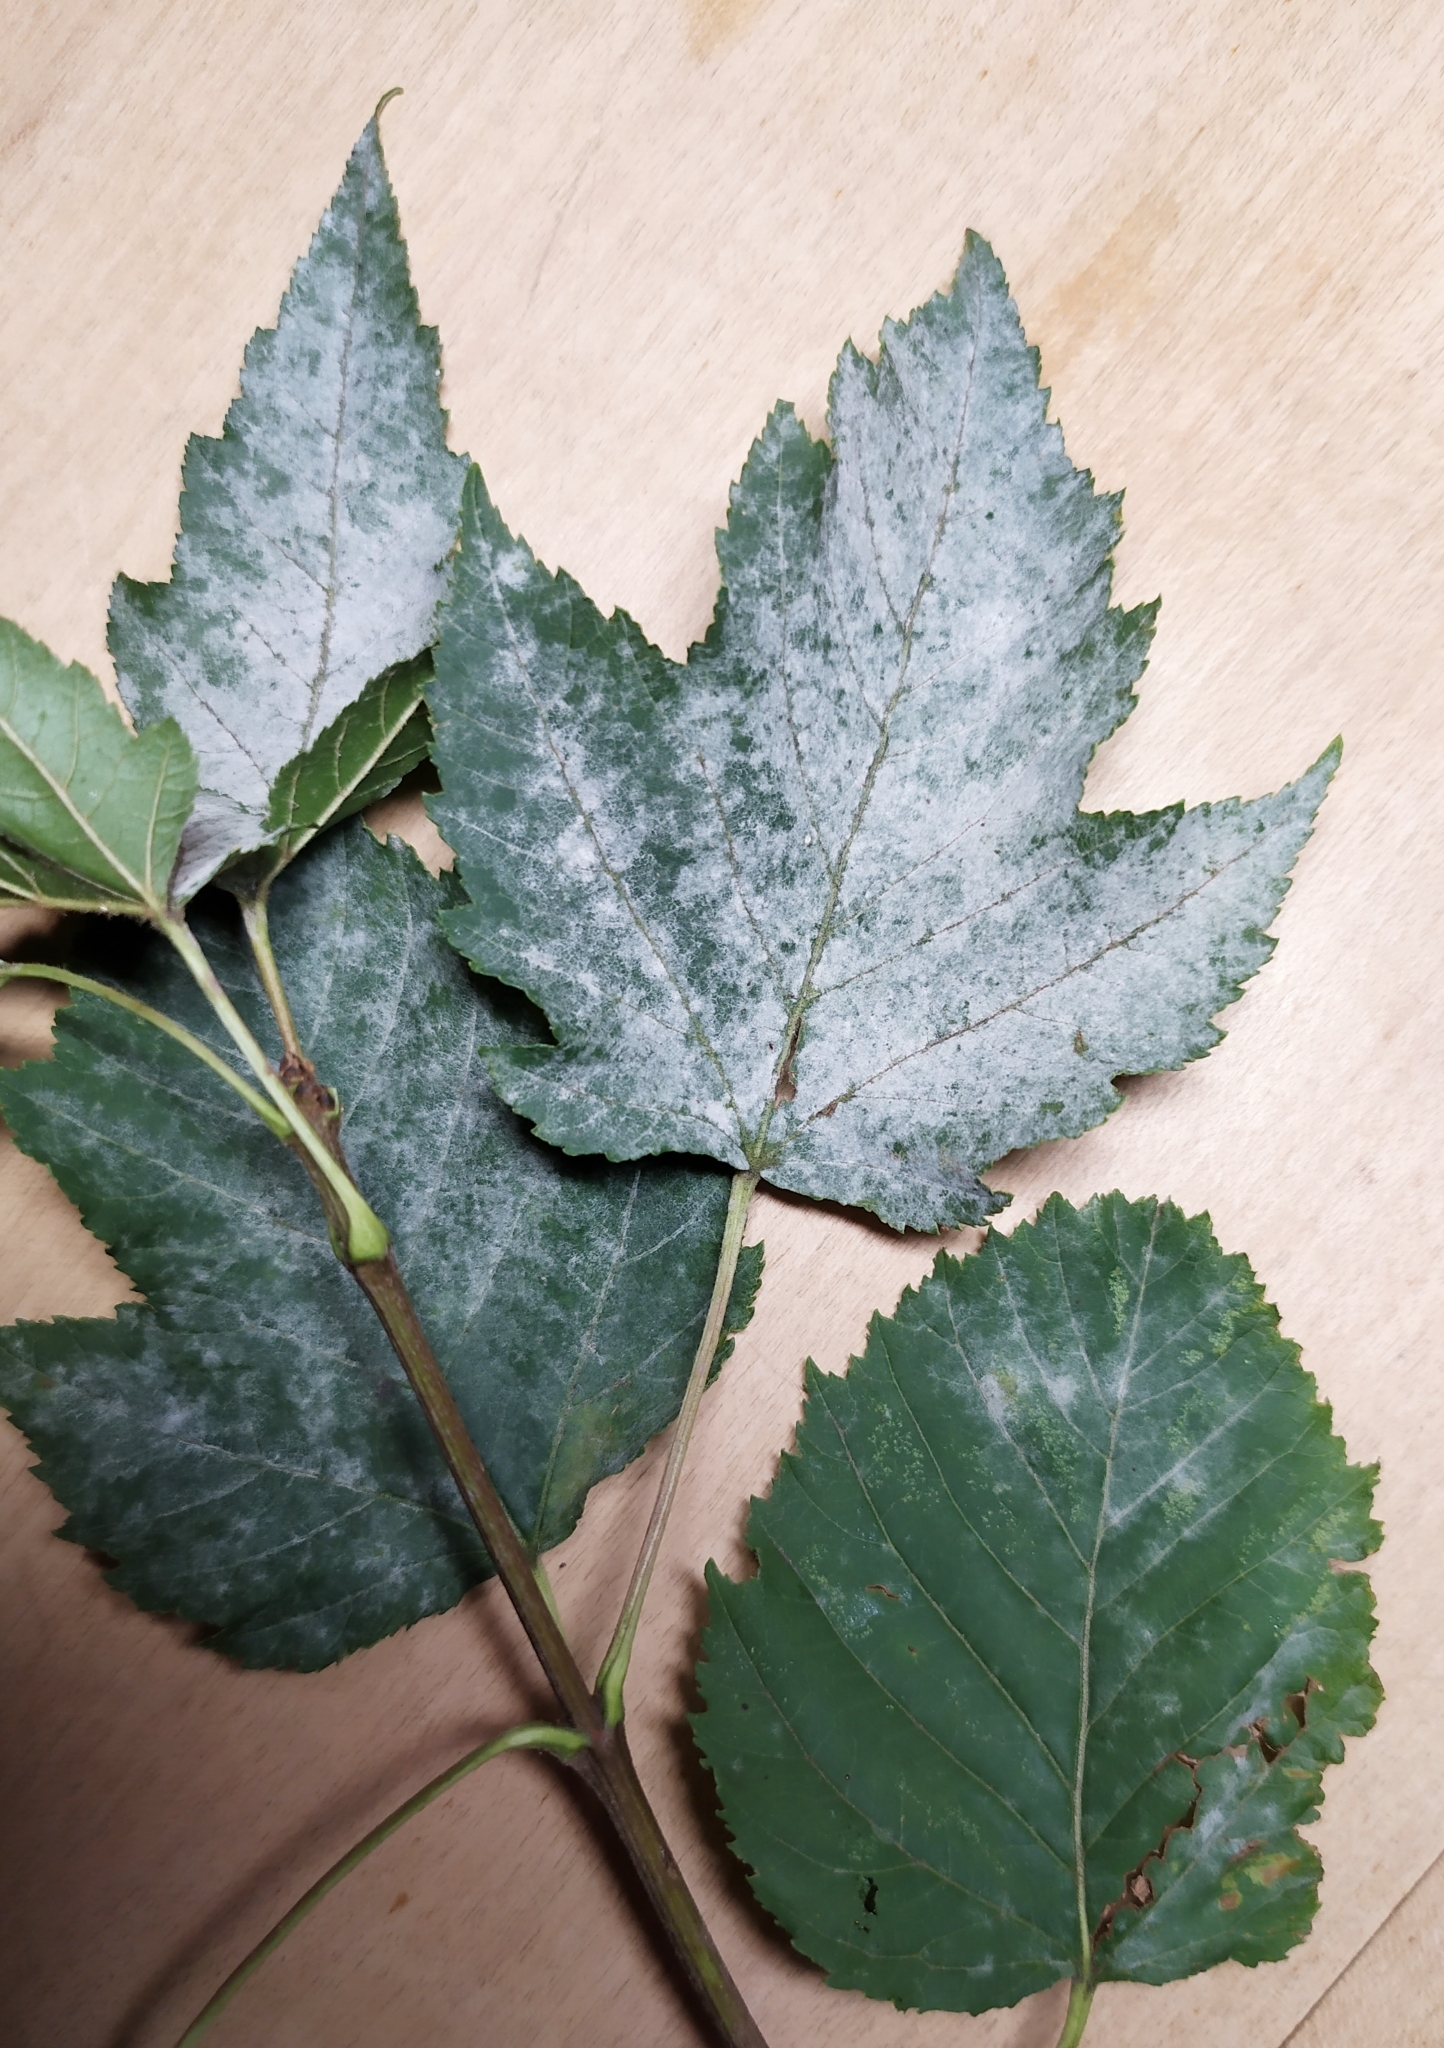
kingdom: Plantae
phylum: Tracheophyta
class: Magnoliopsida
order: Sapindales
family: Sapindaceae
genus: Acer
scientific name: Acer tataricum
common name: Tartar maple
